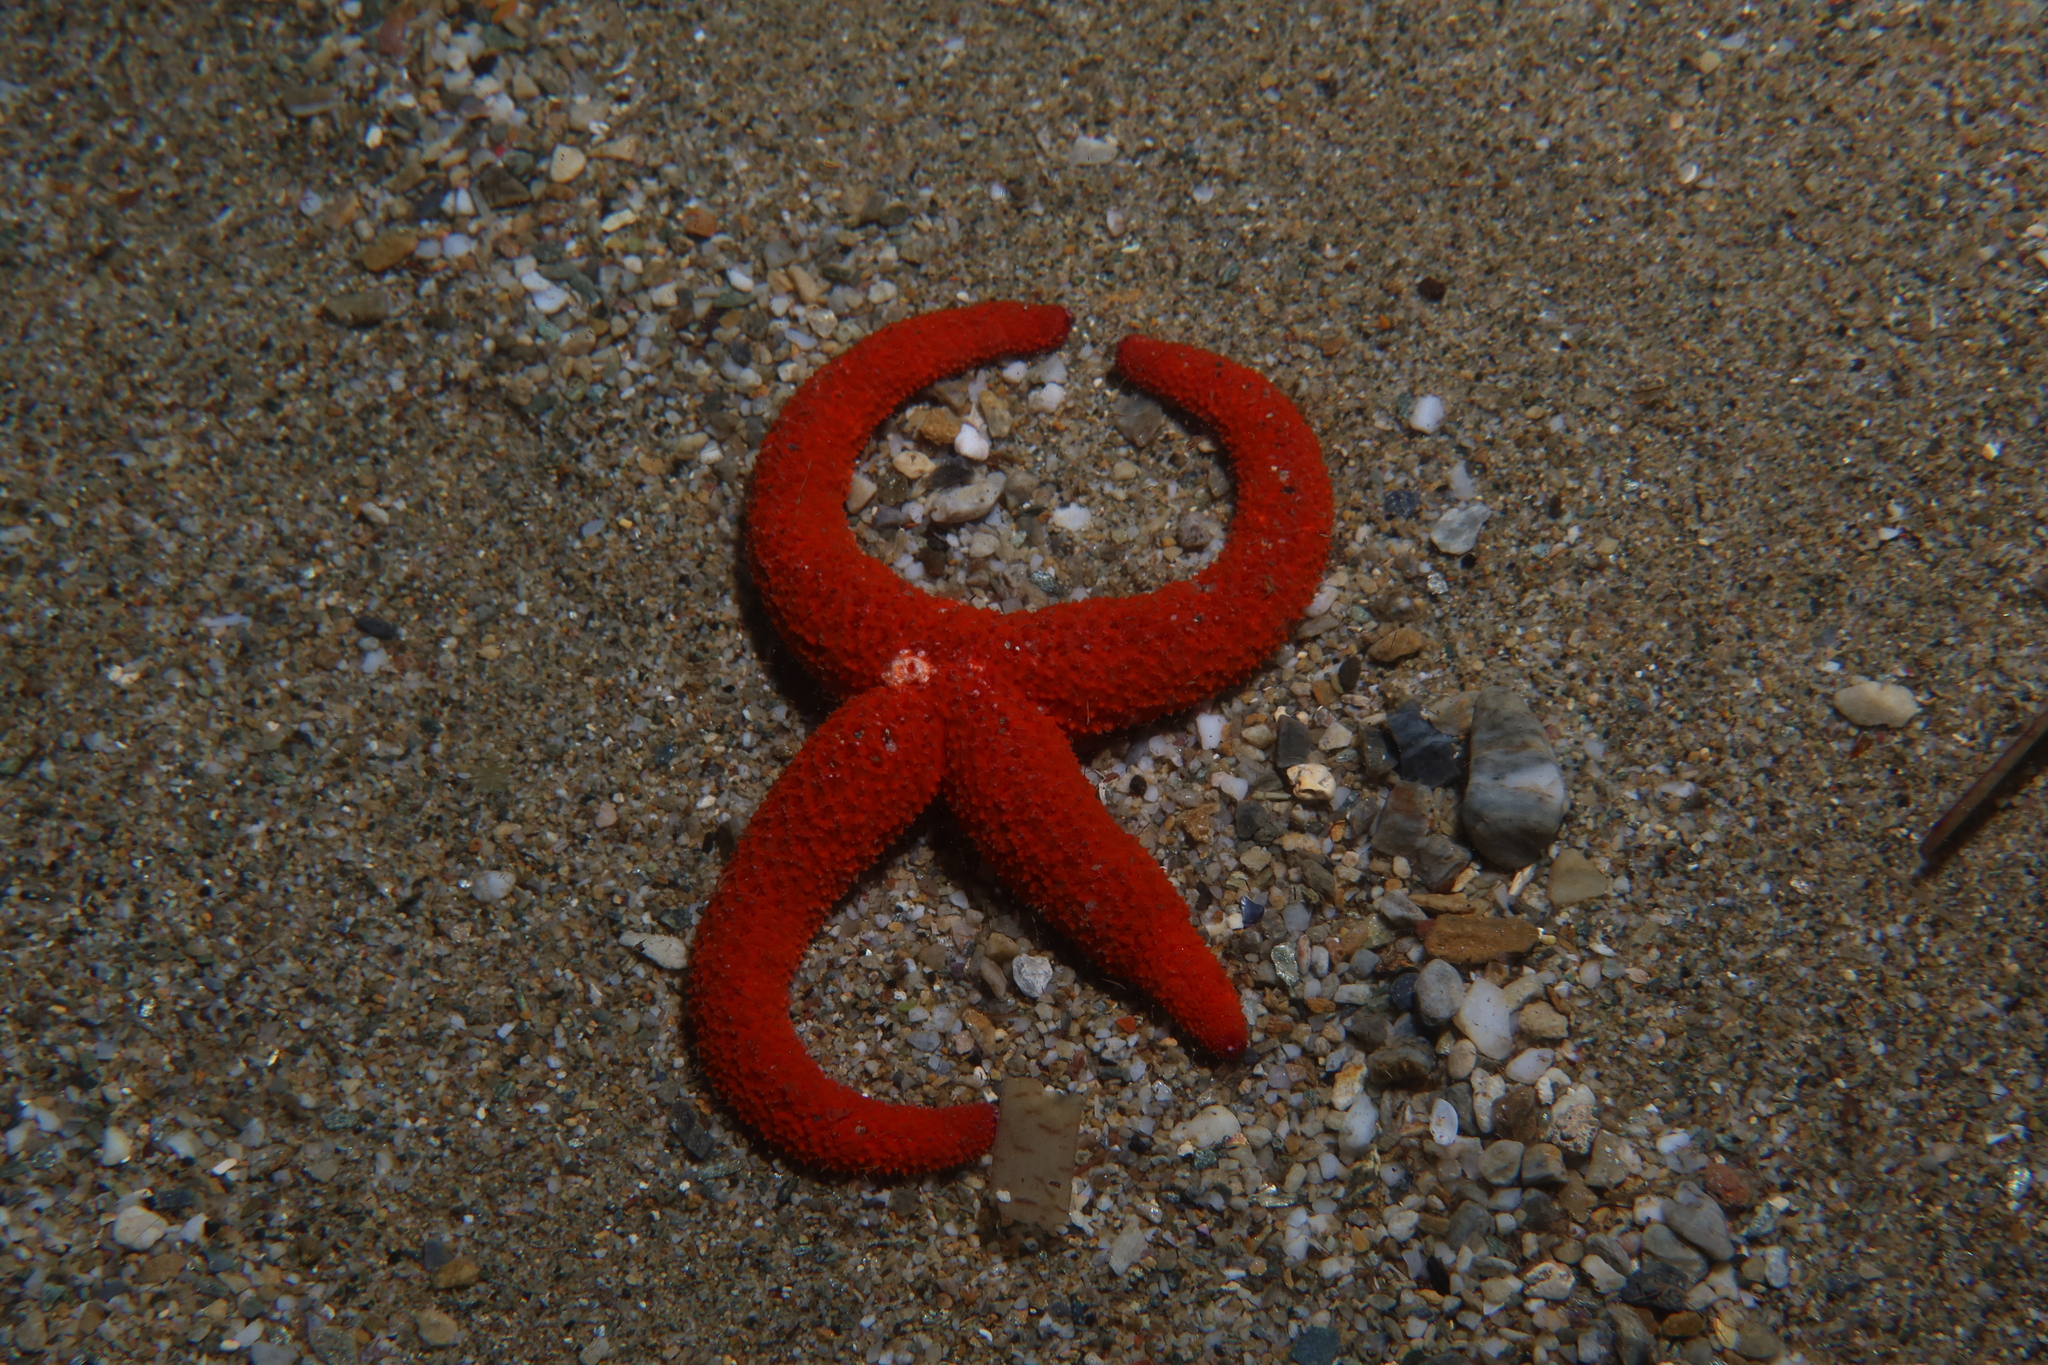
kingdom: Animalia
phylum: Echinodermata
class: Asteroidea
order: Spinulosida
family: Echinasteridae
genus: Echinaster
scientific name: Echinaster sepositus
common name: Red starfish
